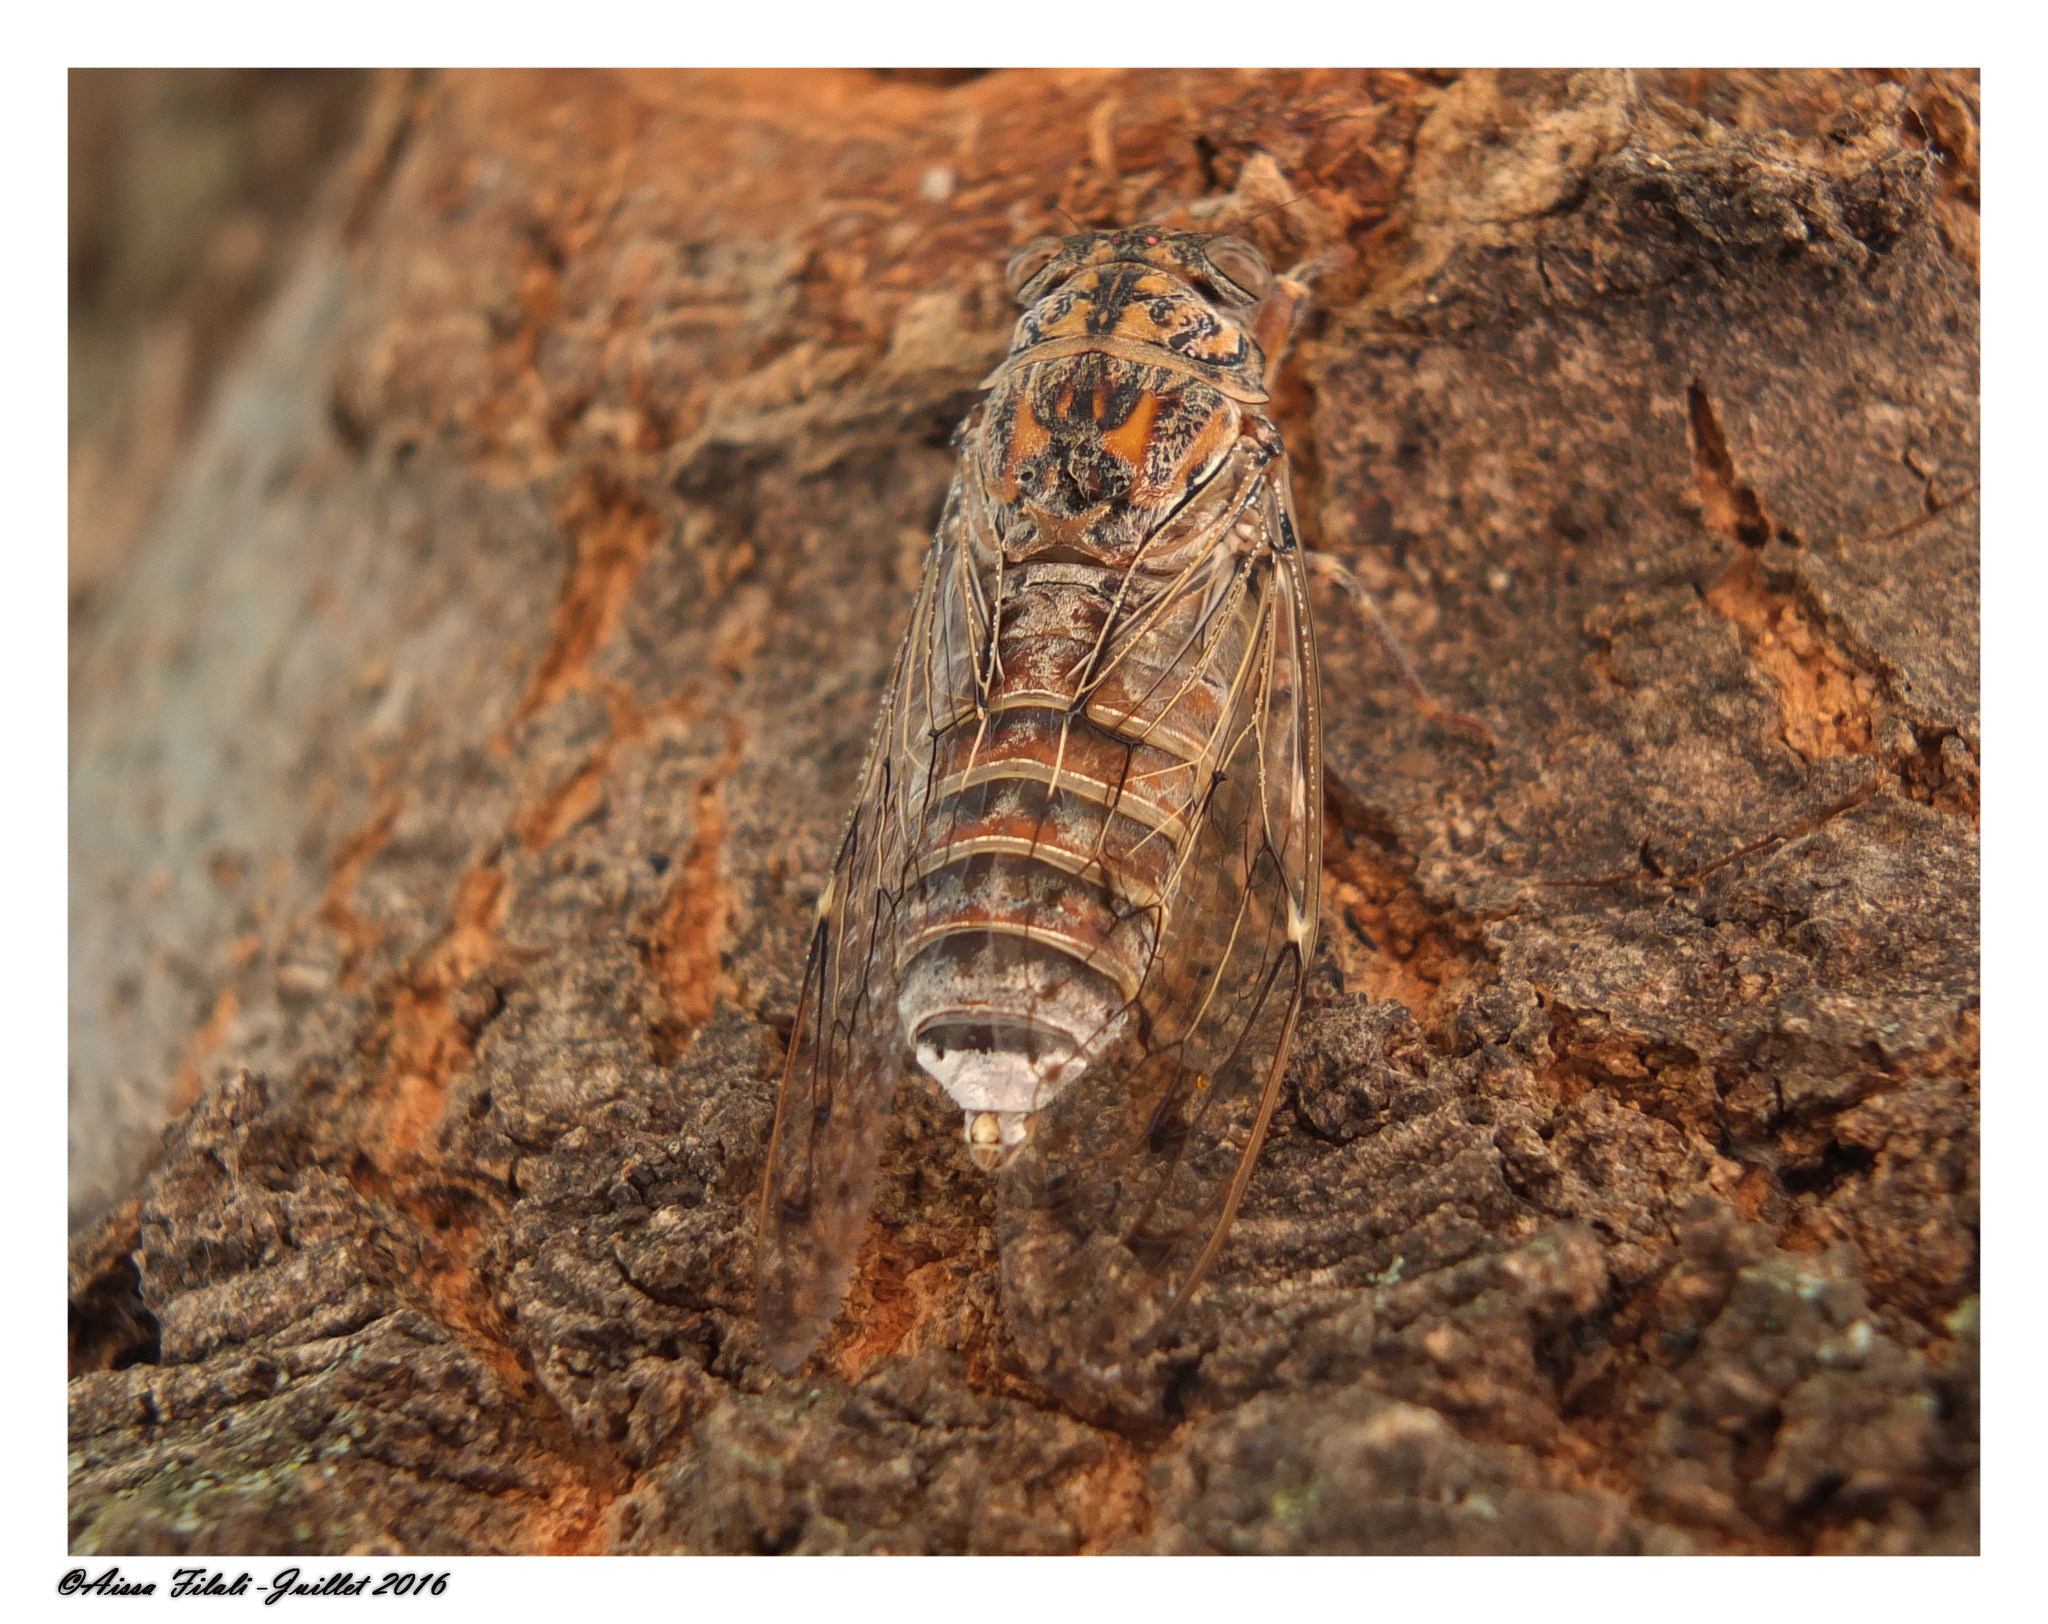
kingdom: Animalia
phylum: Arthropoda
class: Insecta
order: Hemiptera
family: Cicadidae
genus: Cicada
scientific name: Cicada barbara
